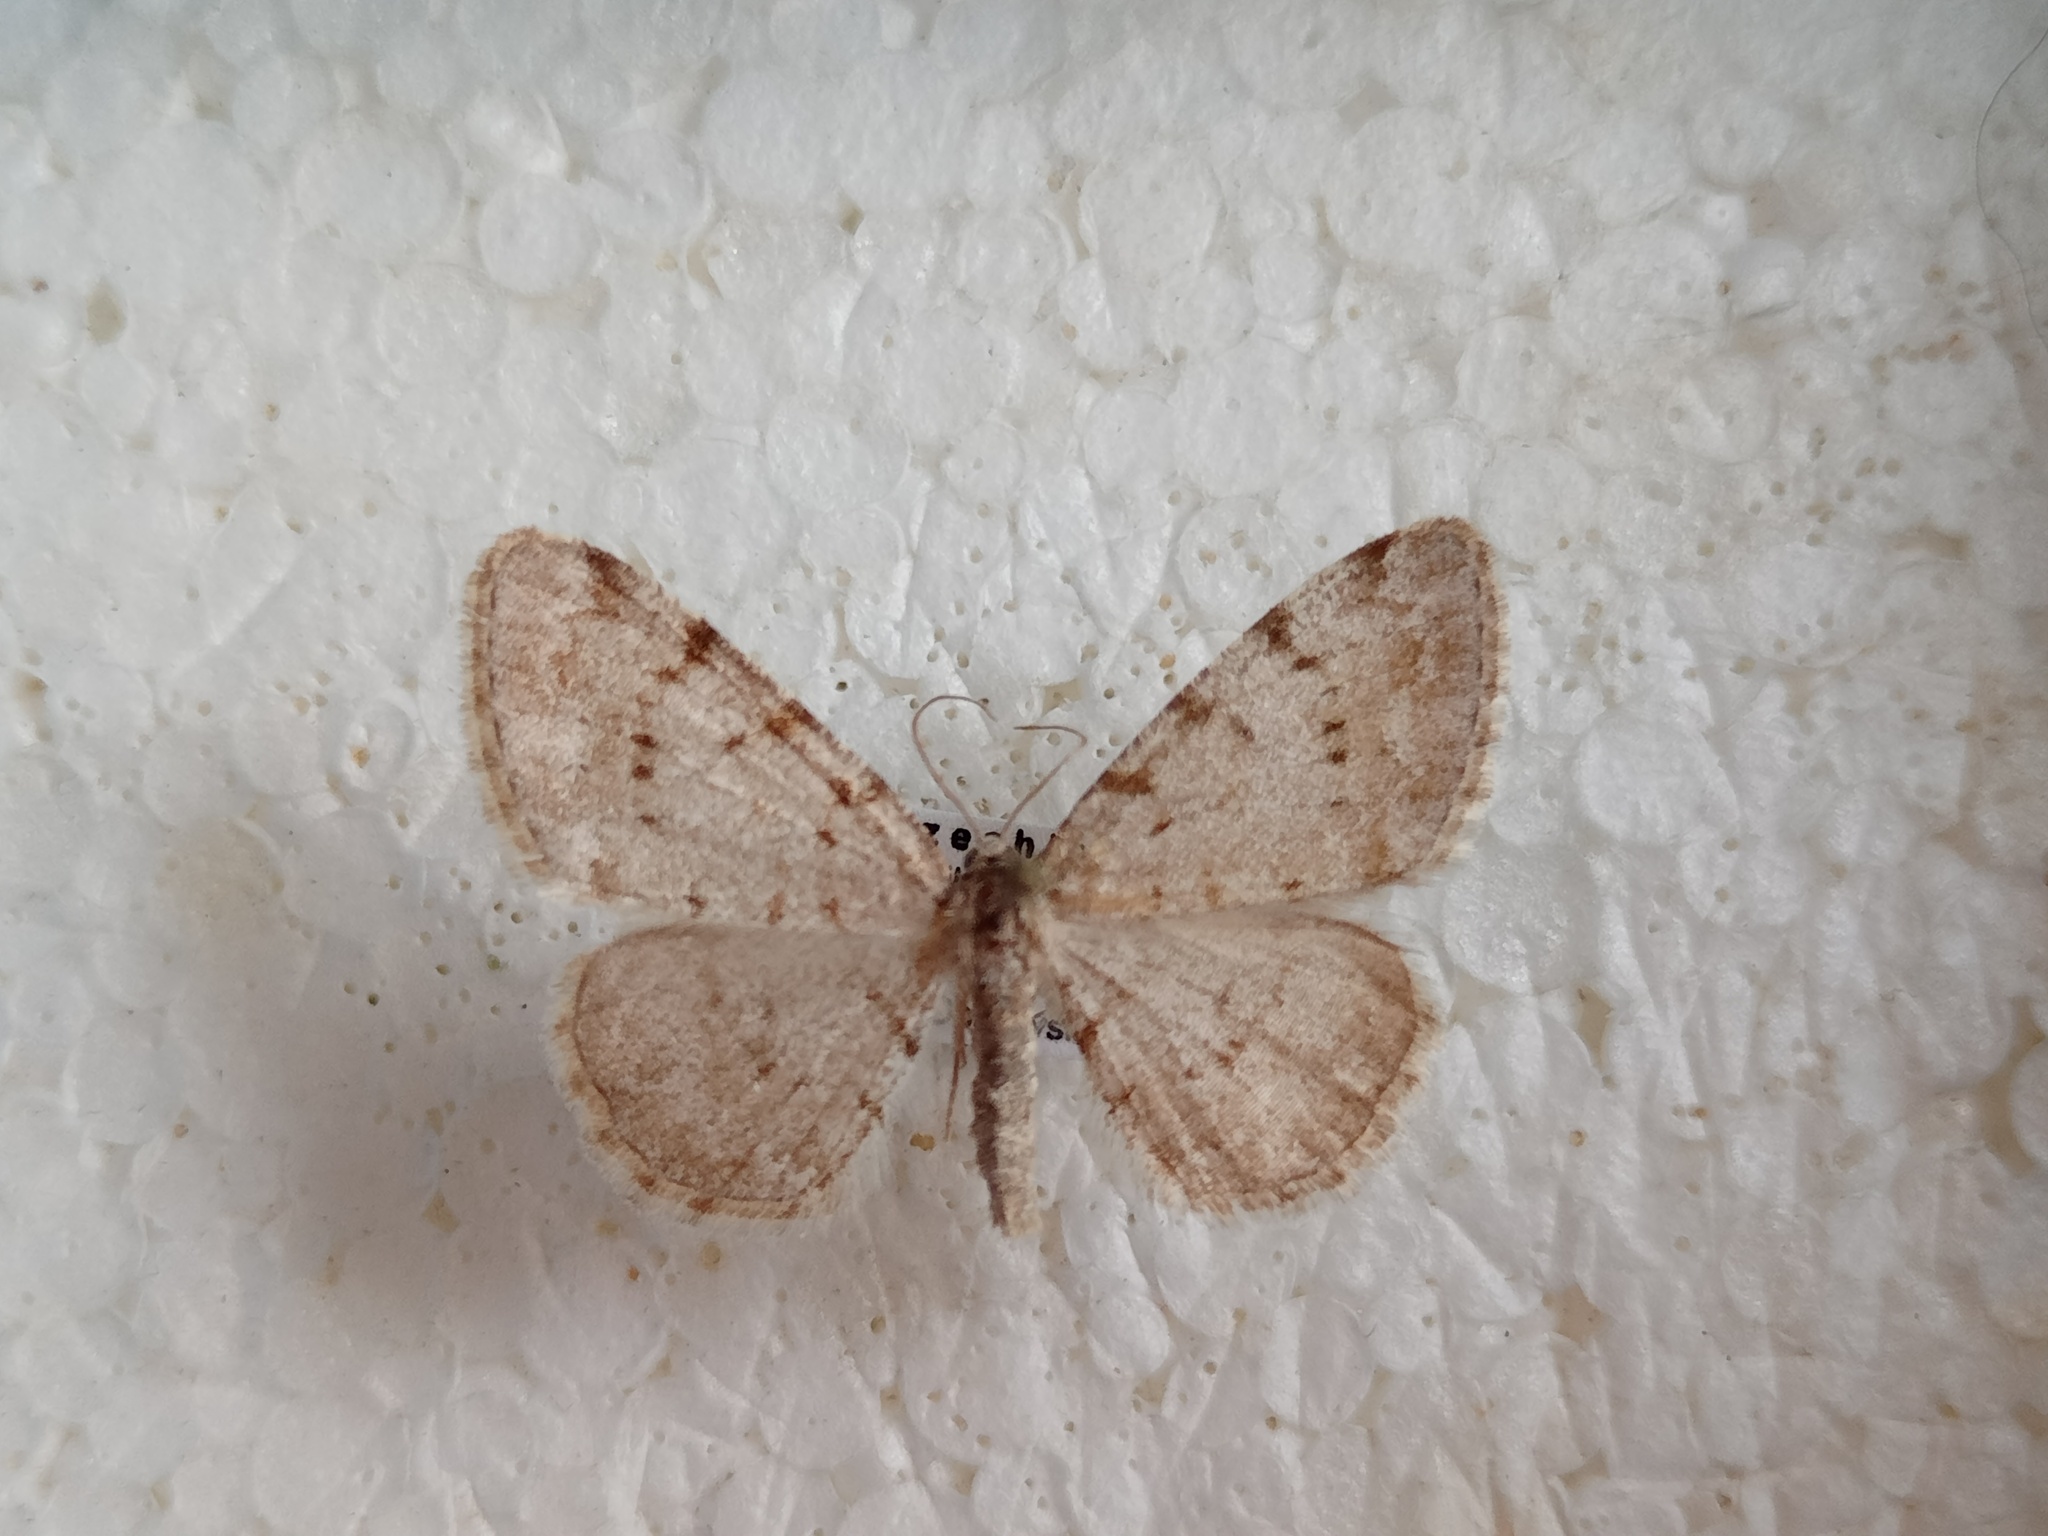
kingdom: Animalia
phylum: Arthropoda
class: Insecta
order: Lepidoptera
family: Geometridae
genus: Aethalura
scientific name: Aethalura punctulata
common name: Grey birch
